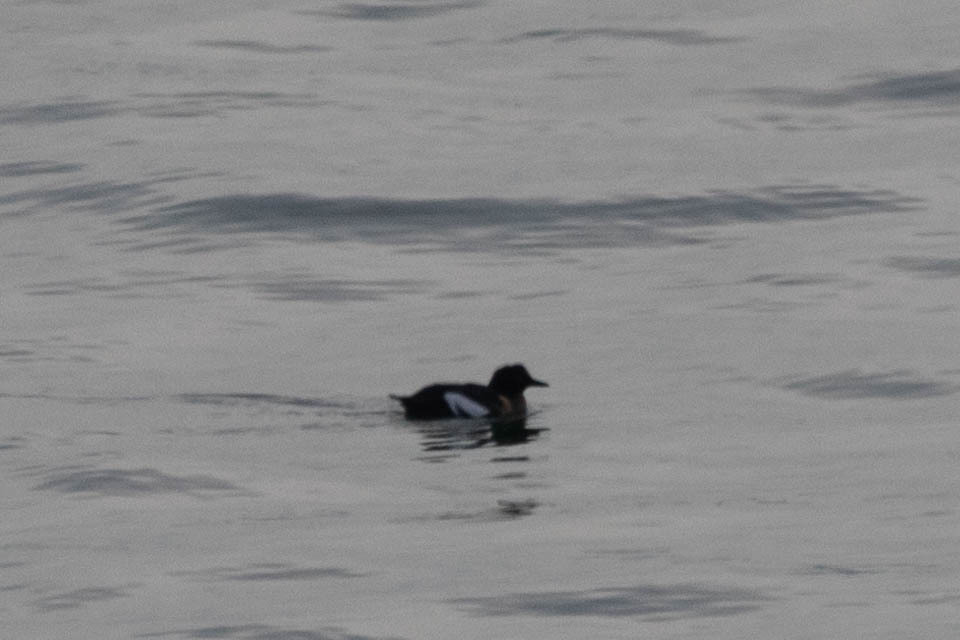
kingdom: Animalia
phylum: Chordata
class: Aves
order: Charadriiformes
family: Alcidae
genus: Cepphus
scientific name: Cepphus columba
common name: Pigeon guillemot
